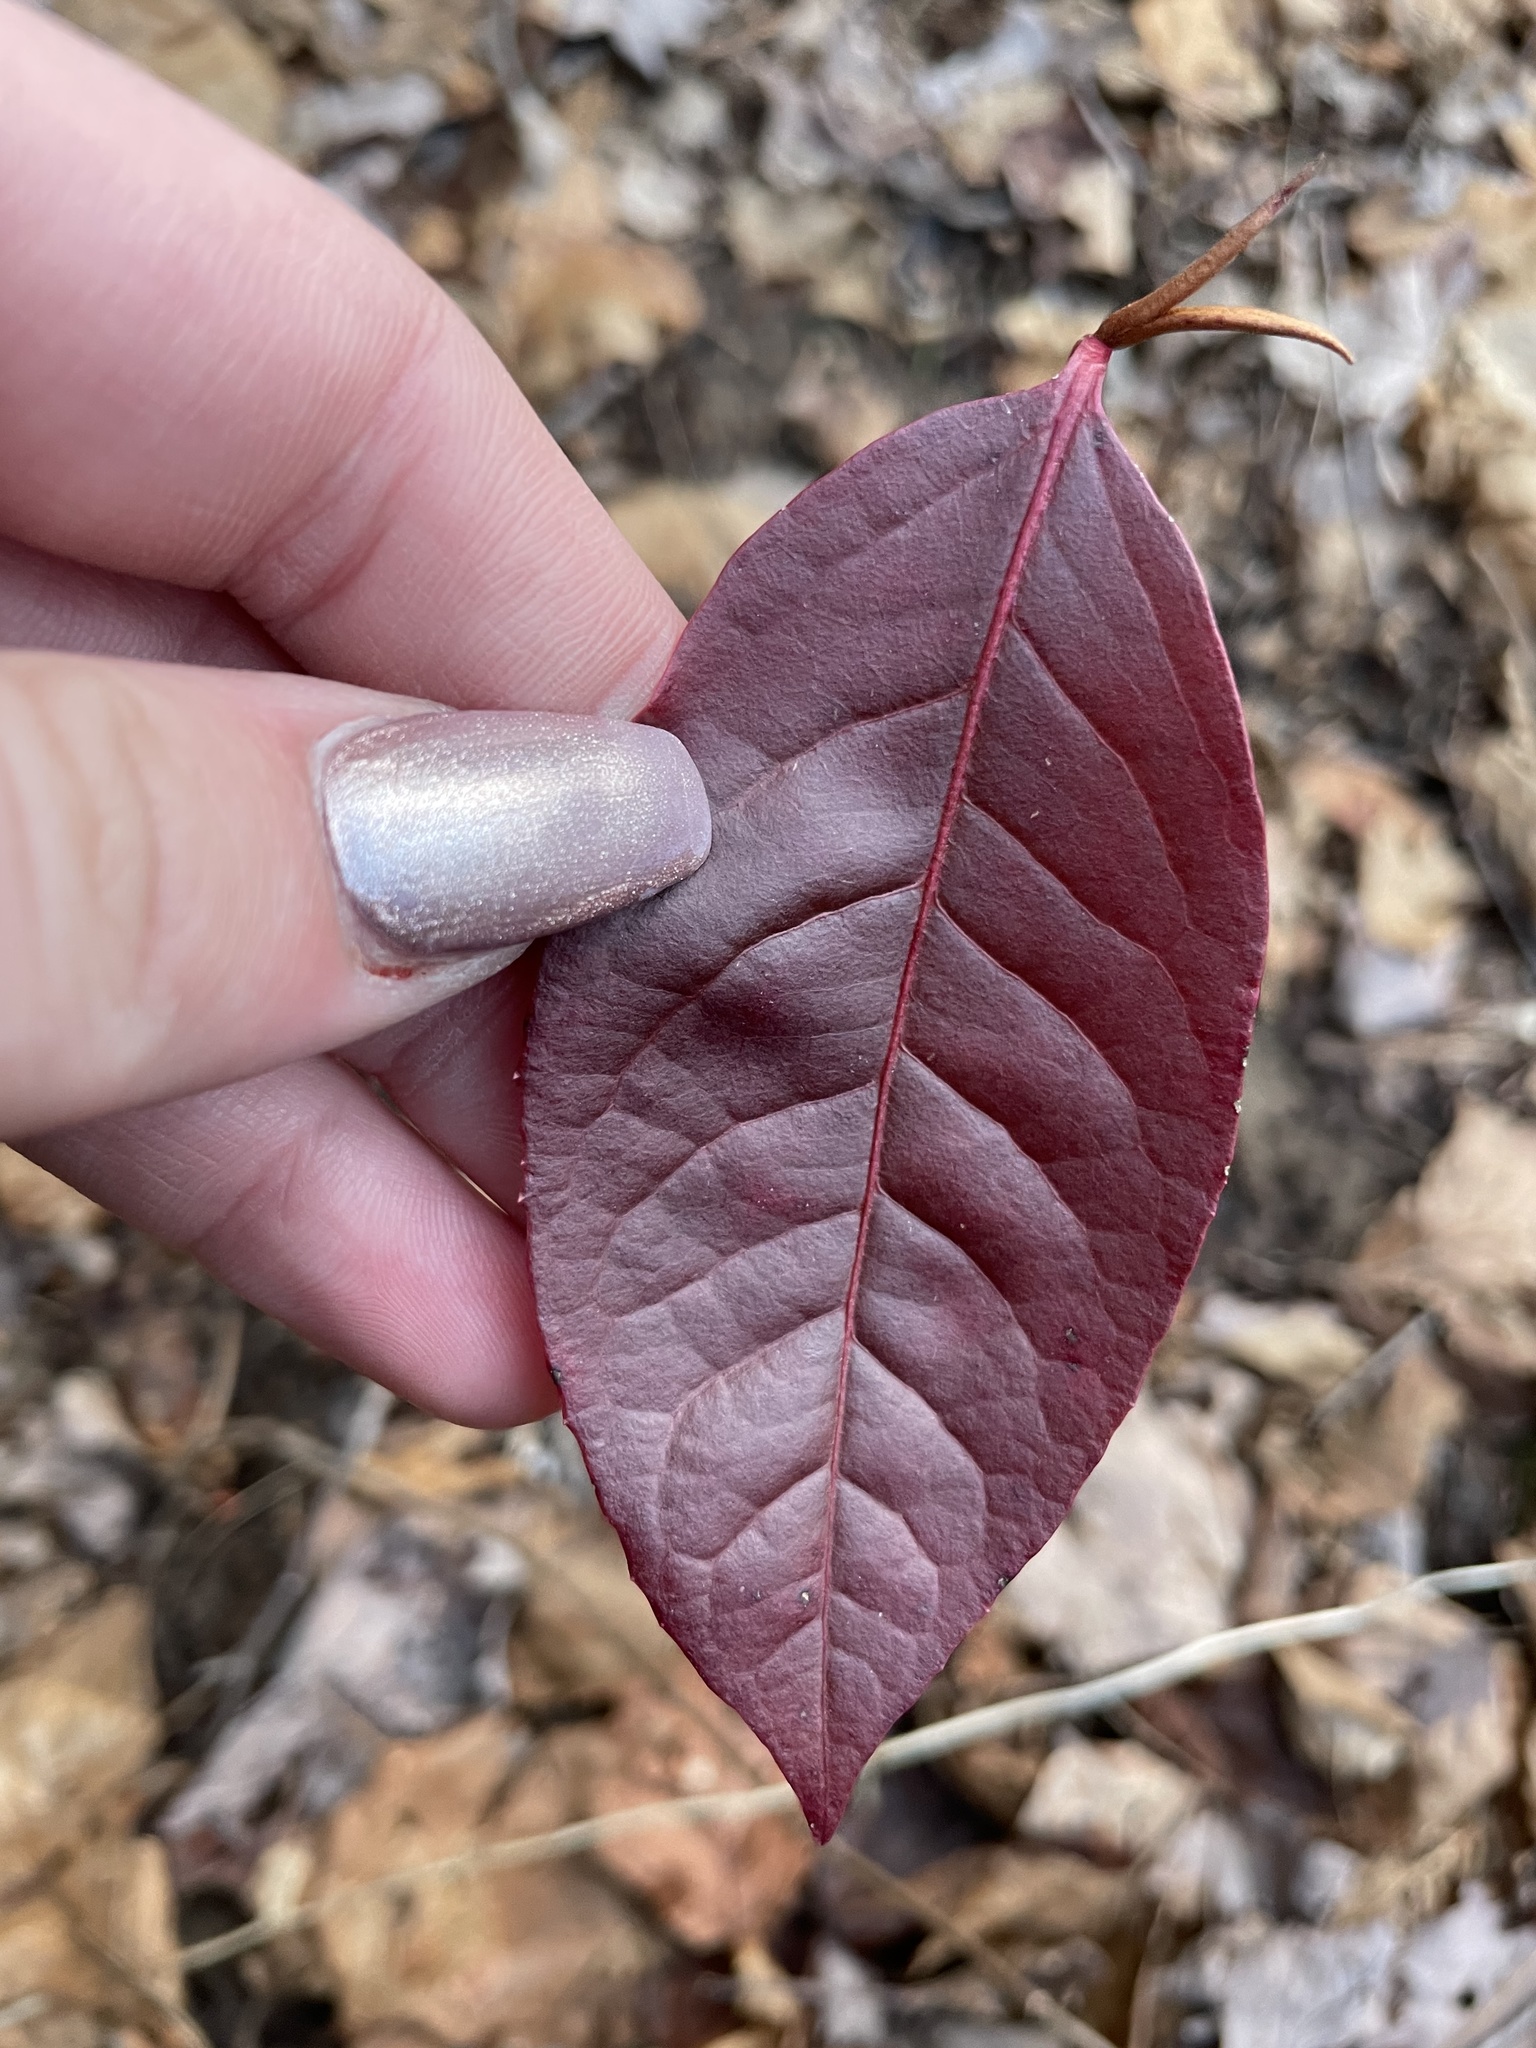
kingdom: Plantae
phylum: Tracheophyta
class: Magnoliopsida
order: Dipsacales
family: Viburnaceae
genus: Viburnum
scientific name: Viburnum cassinoides
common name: Swamp haw
